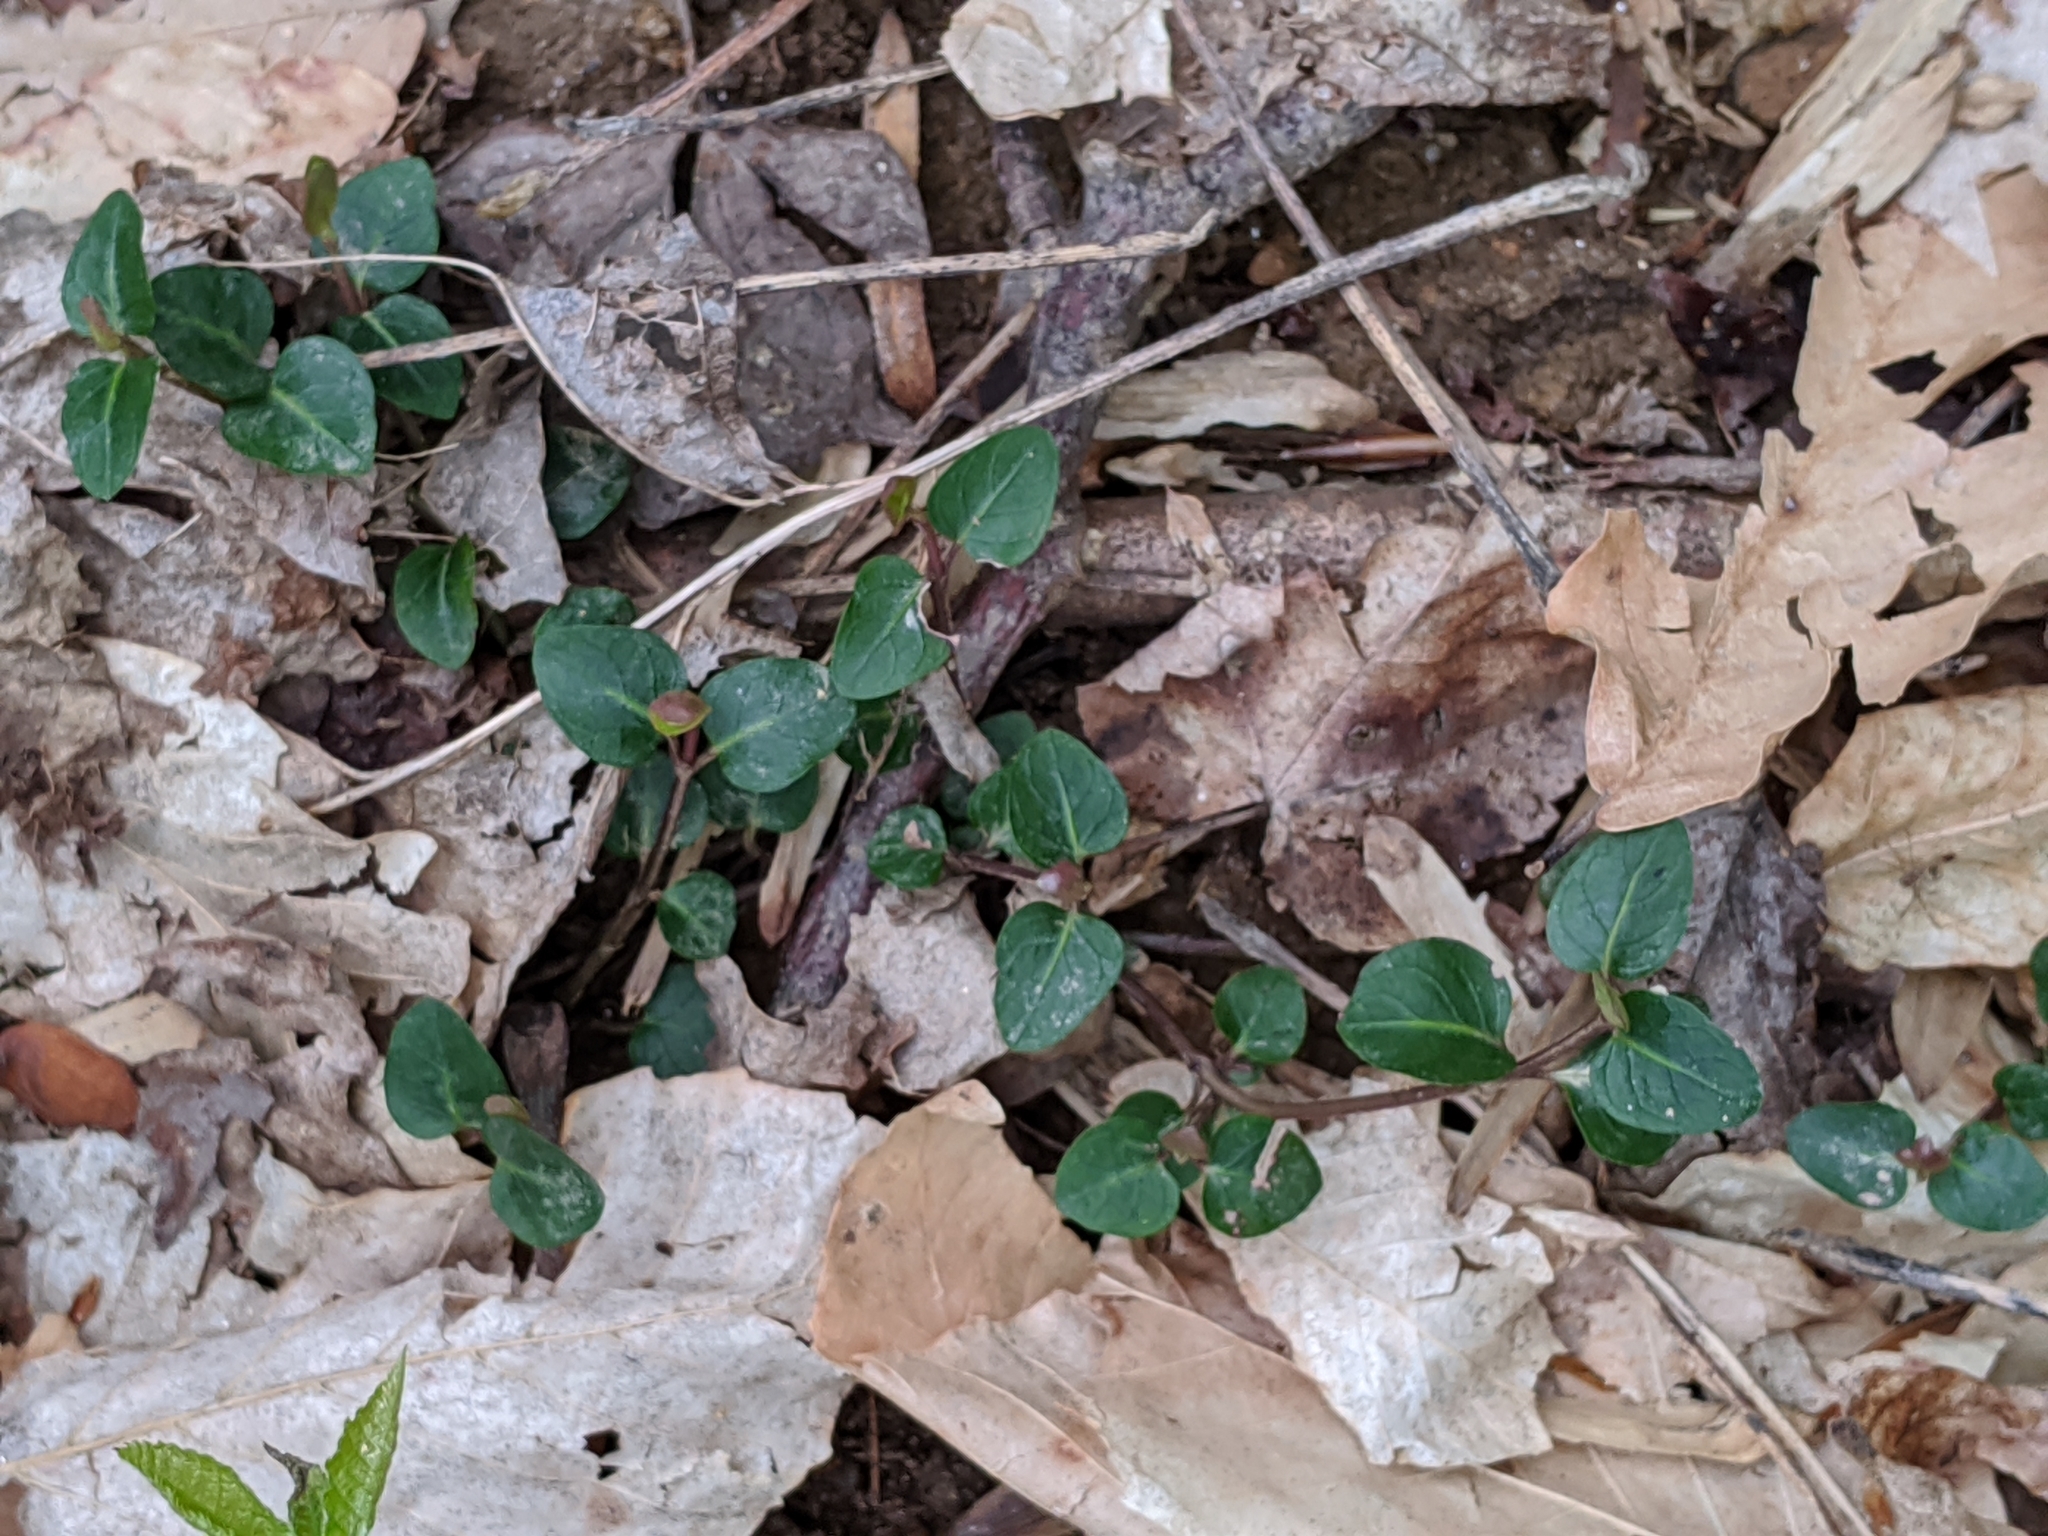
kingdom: Plantae
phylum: Tracheophyta
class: Magnoliopsida
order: Gentianales
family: Rubiaceae
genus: Mitchella
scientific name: Mitchella repens
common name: Partridge-berry
